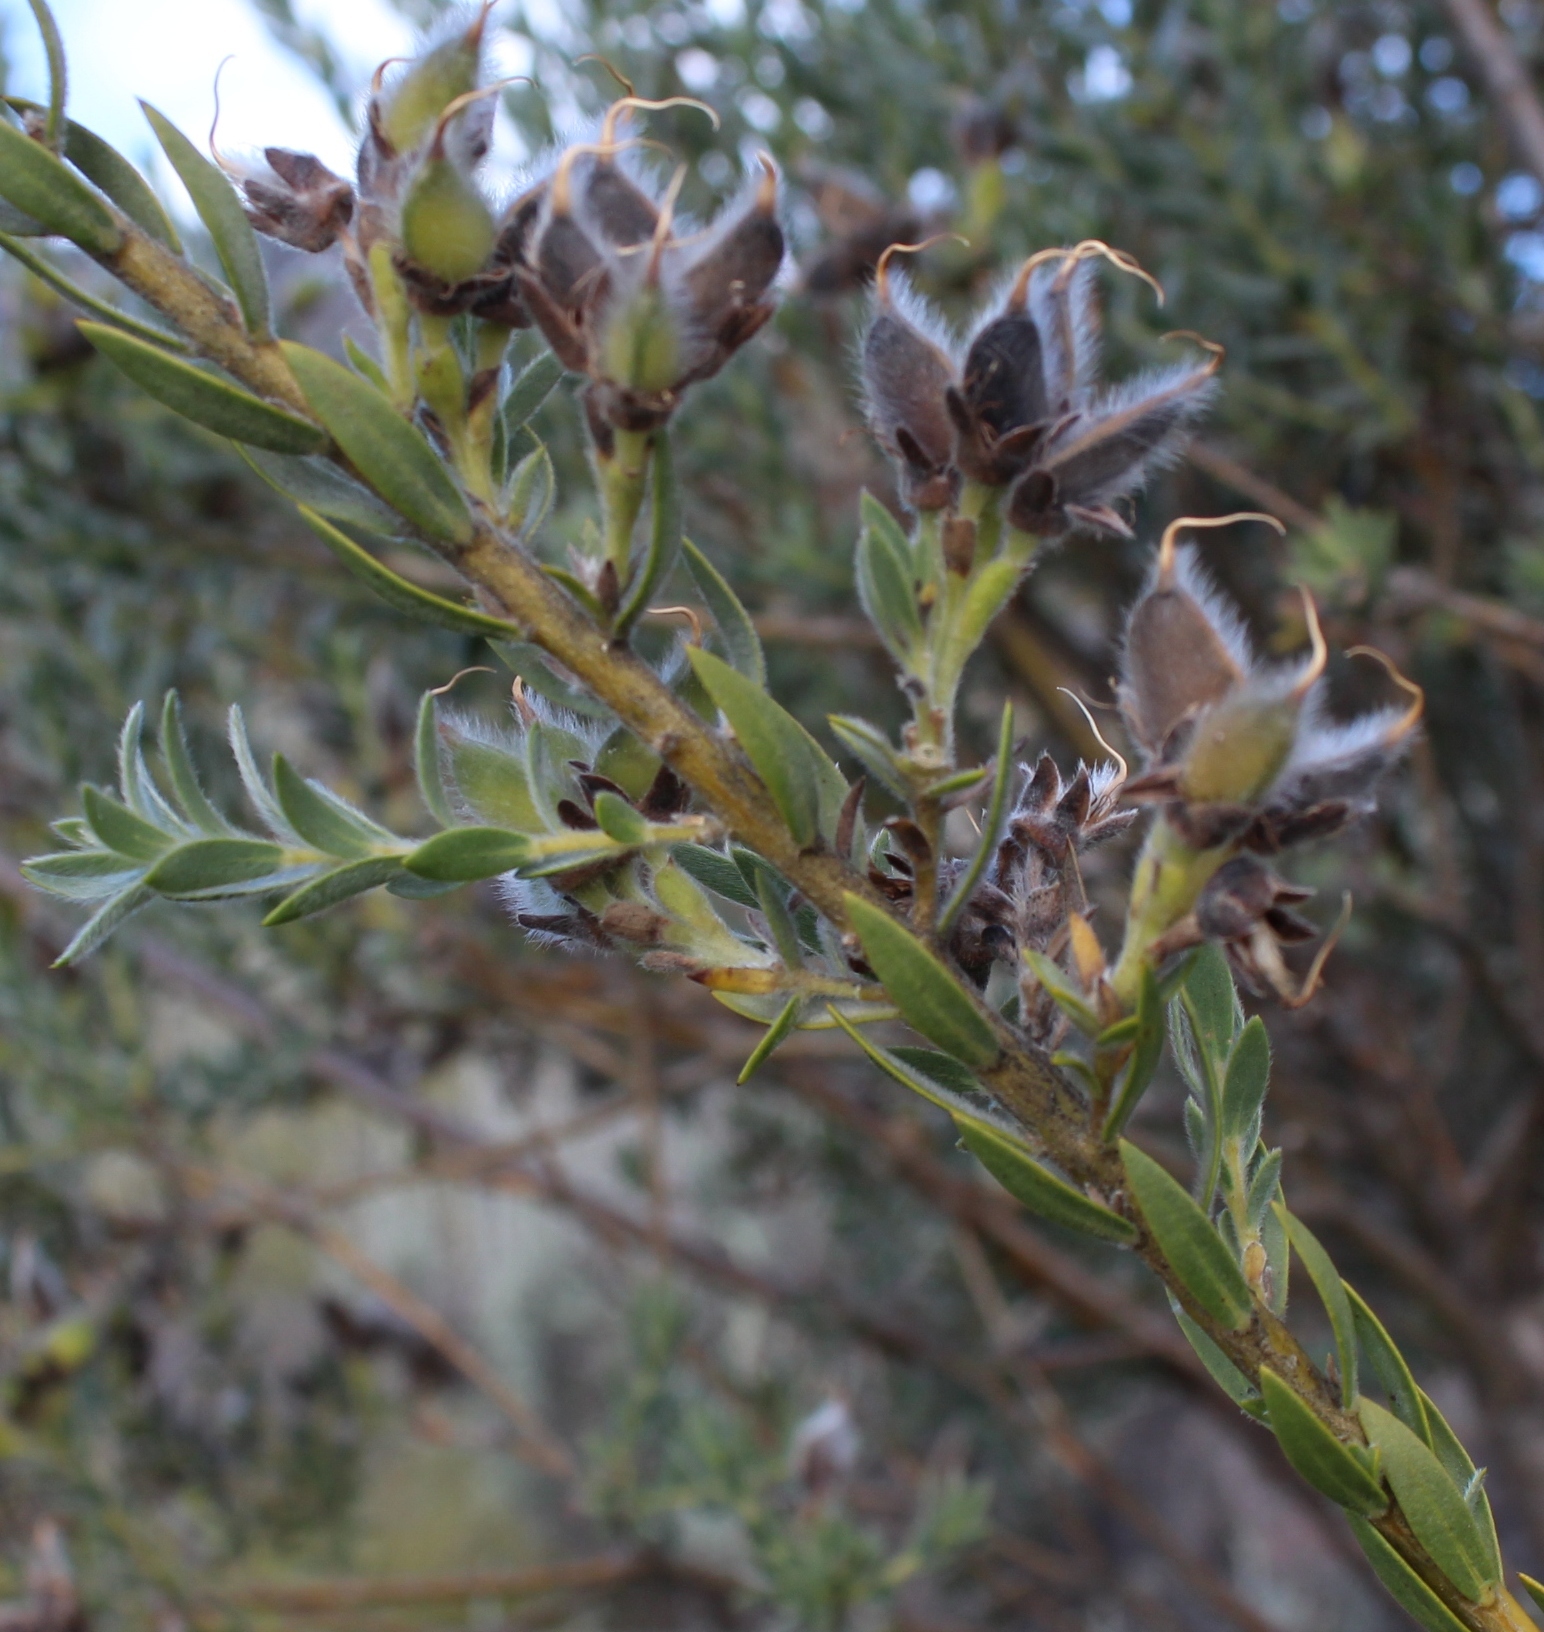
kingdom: Plantae
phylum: Tracheophyta
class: Magnoliopsida
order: Fabales
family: Fabaceae
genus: Liparia
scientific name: Liparia umbellifera
